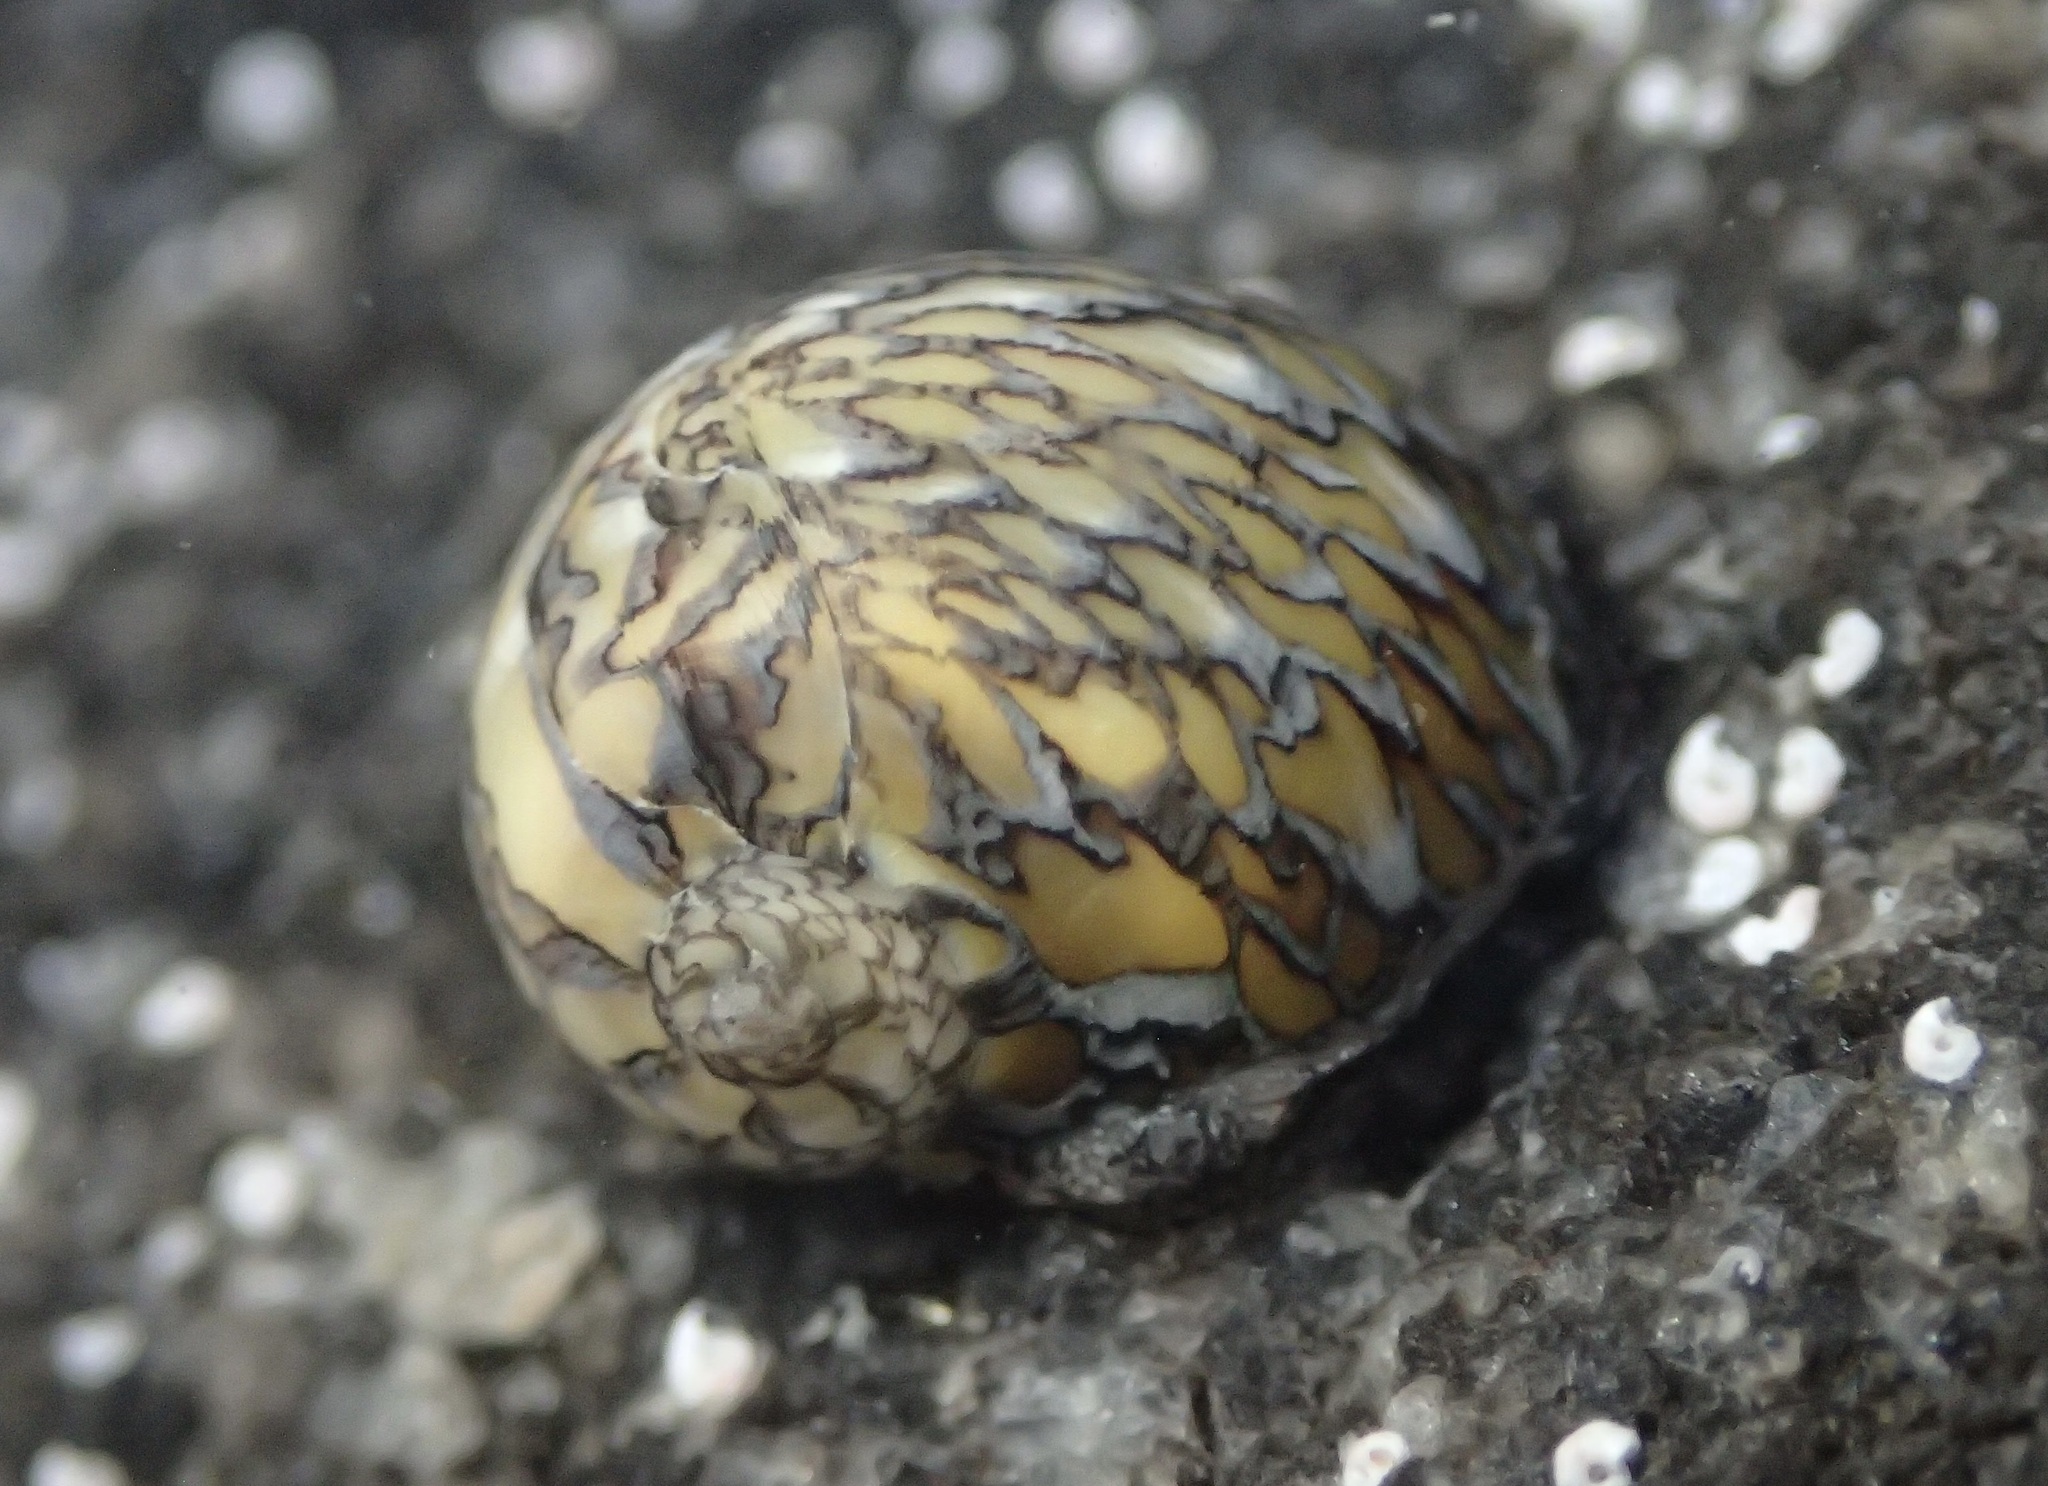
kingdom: Animalia
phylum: Mollusca
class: Gastropoda
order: Cycloneritida
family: Neritidae
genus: Vitta
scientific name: Vitta luteofasciata
